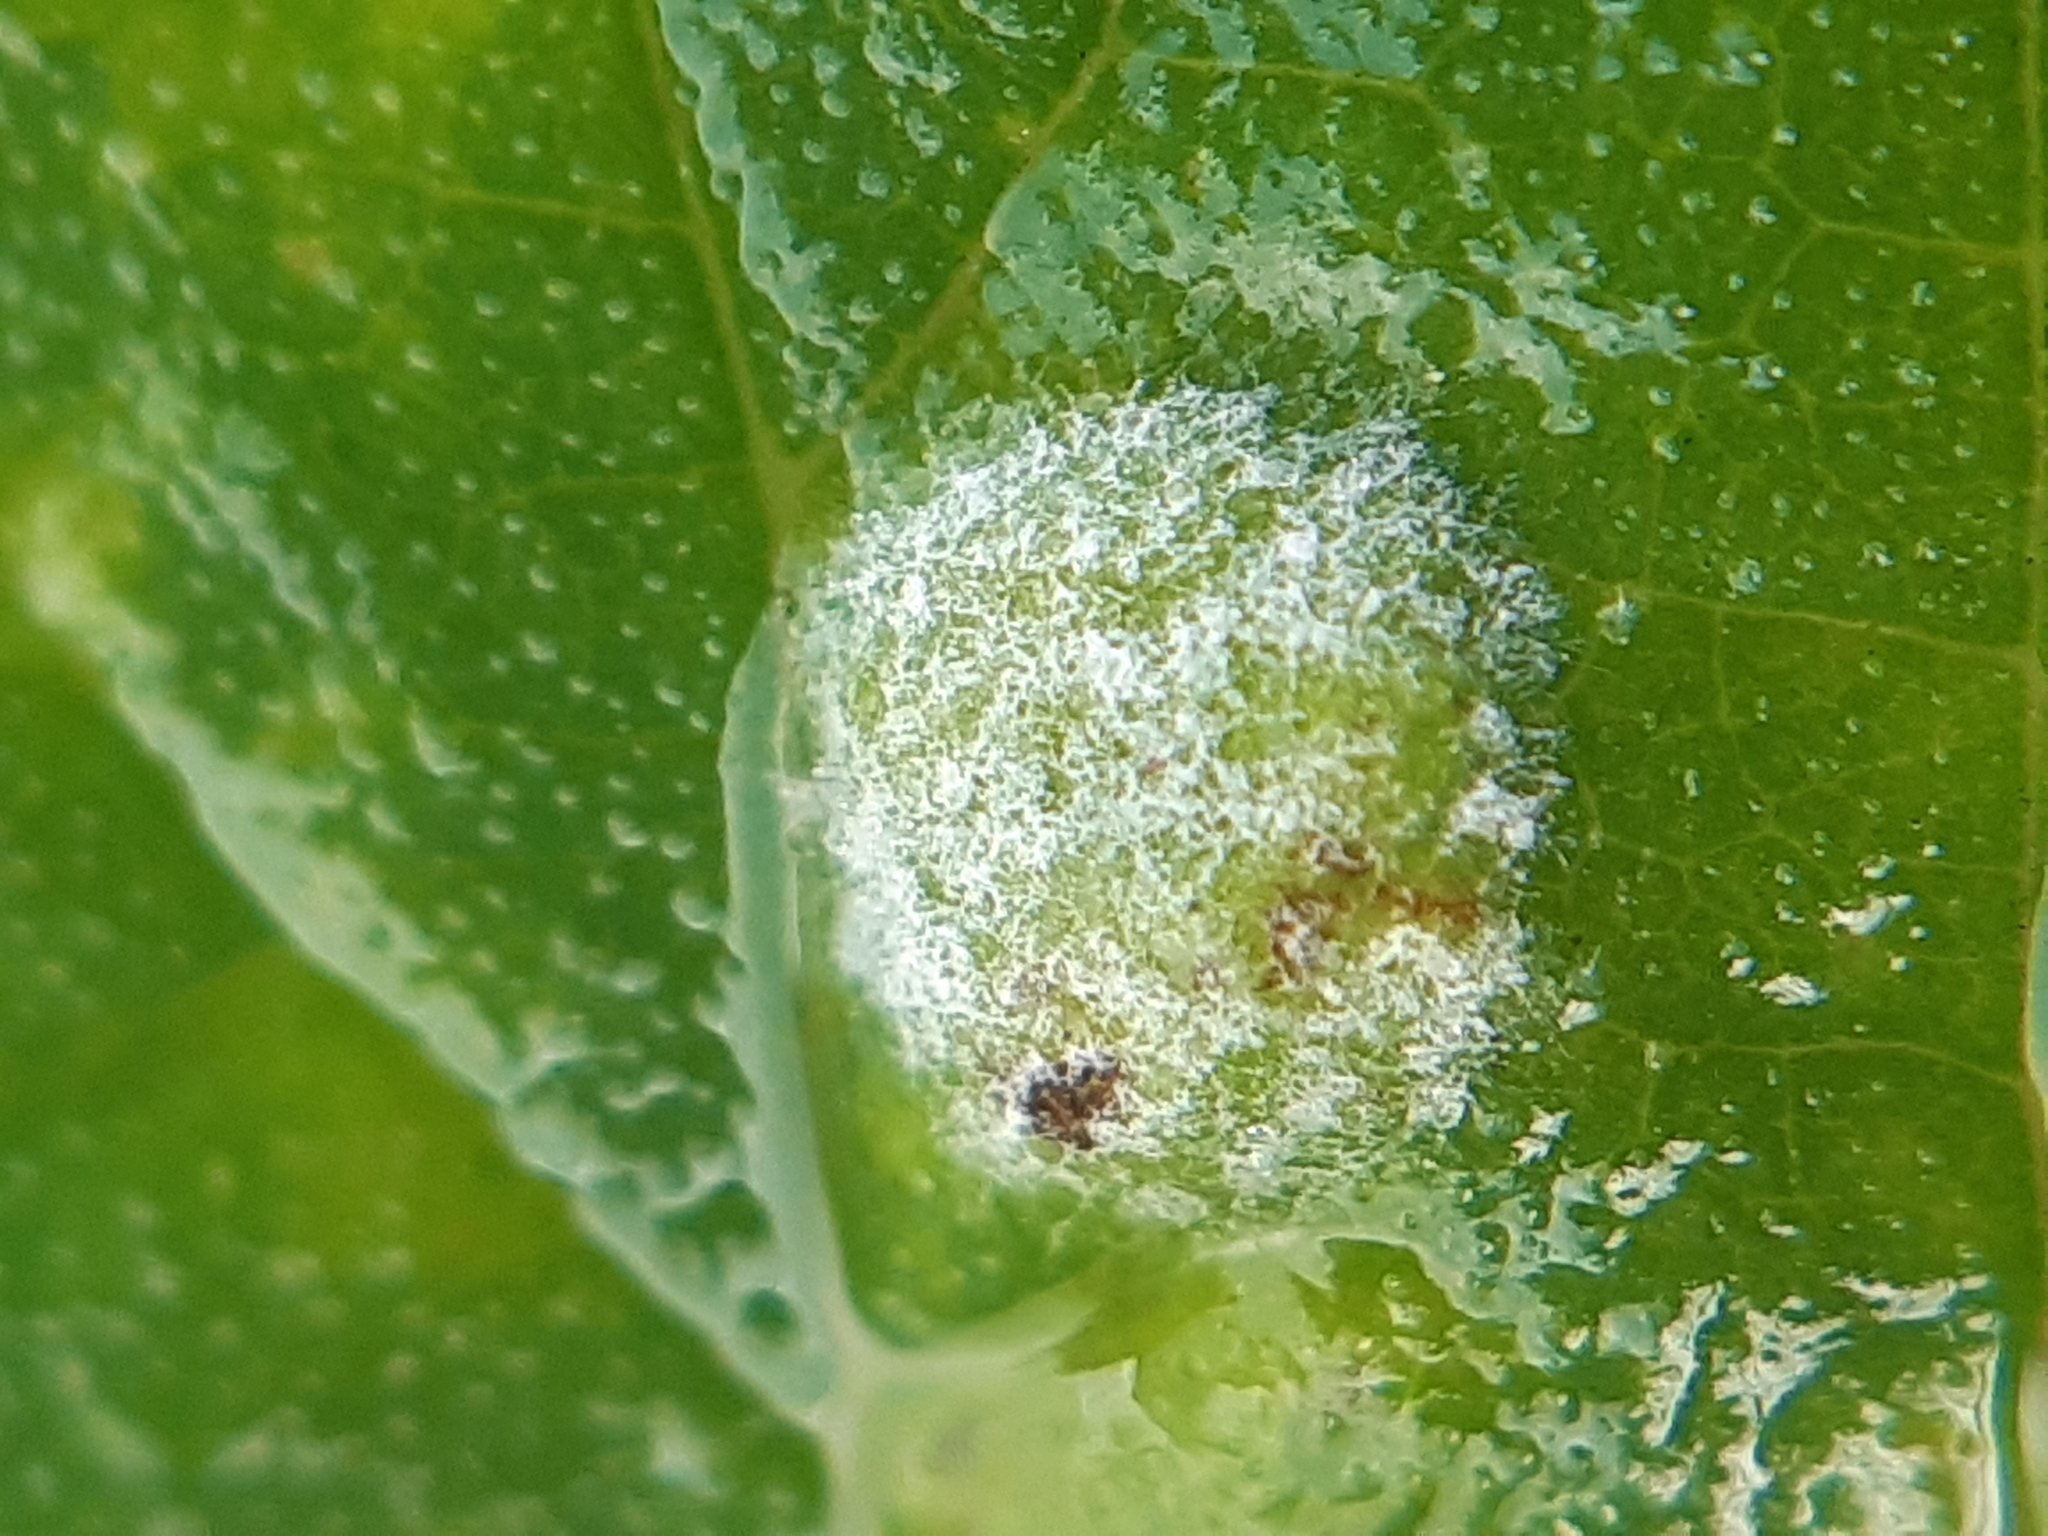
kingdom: Fungi
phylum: Ascomycota
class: Leotiomycetes
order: Helotiales
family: Erysiphaceae
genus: Podosphaera
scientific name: Podosphaera macularis
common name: Powdery mildew
